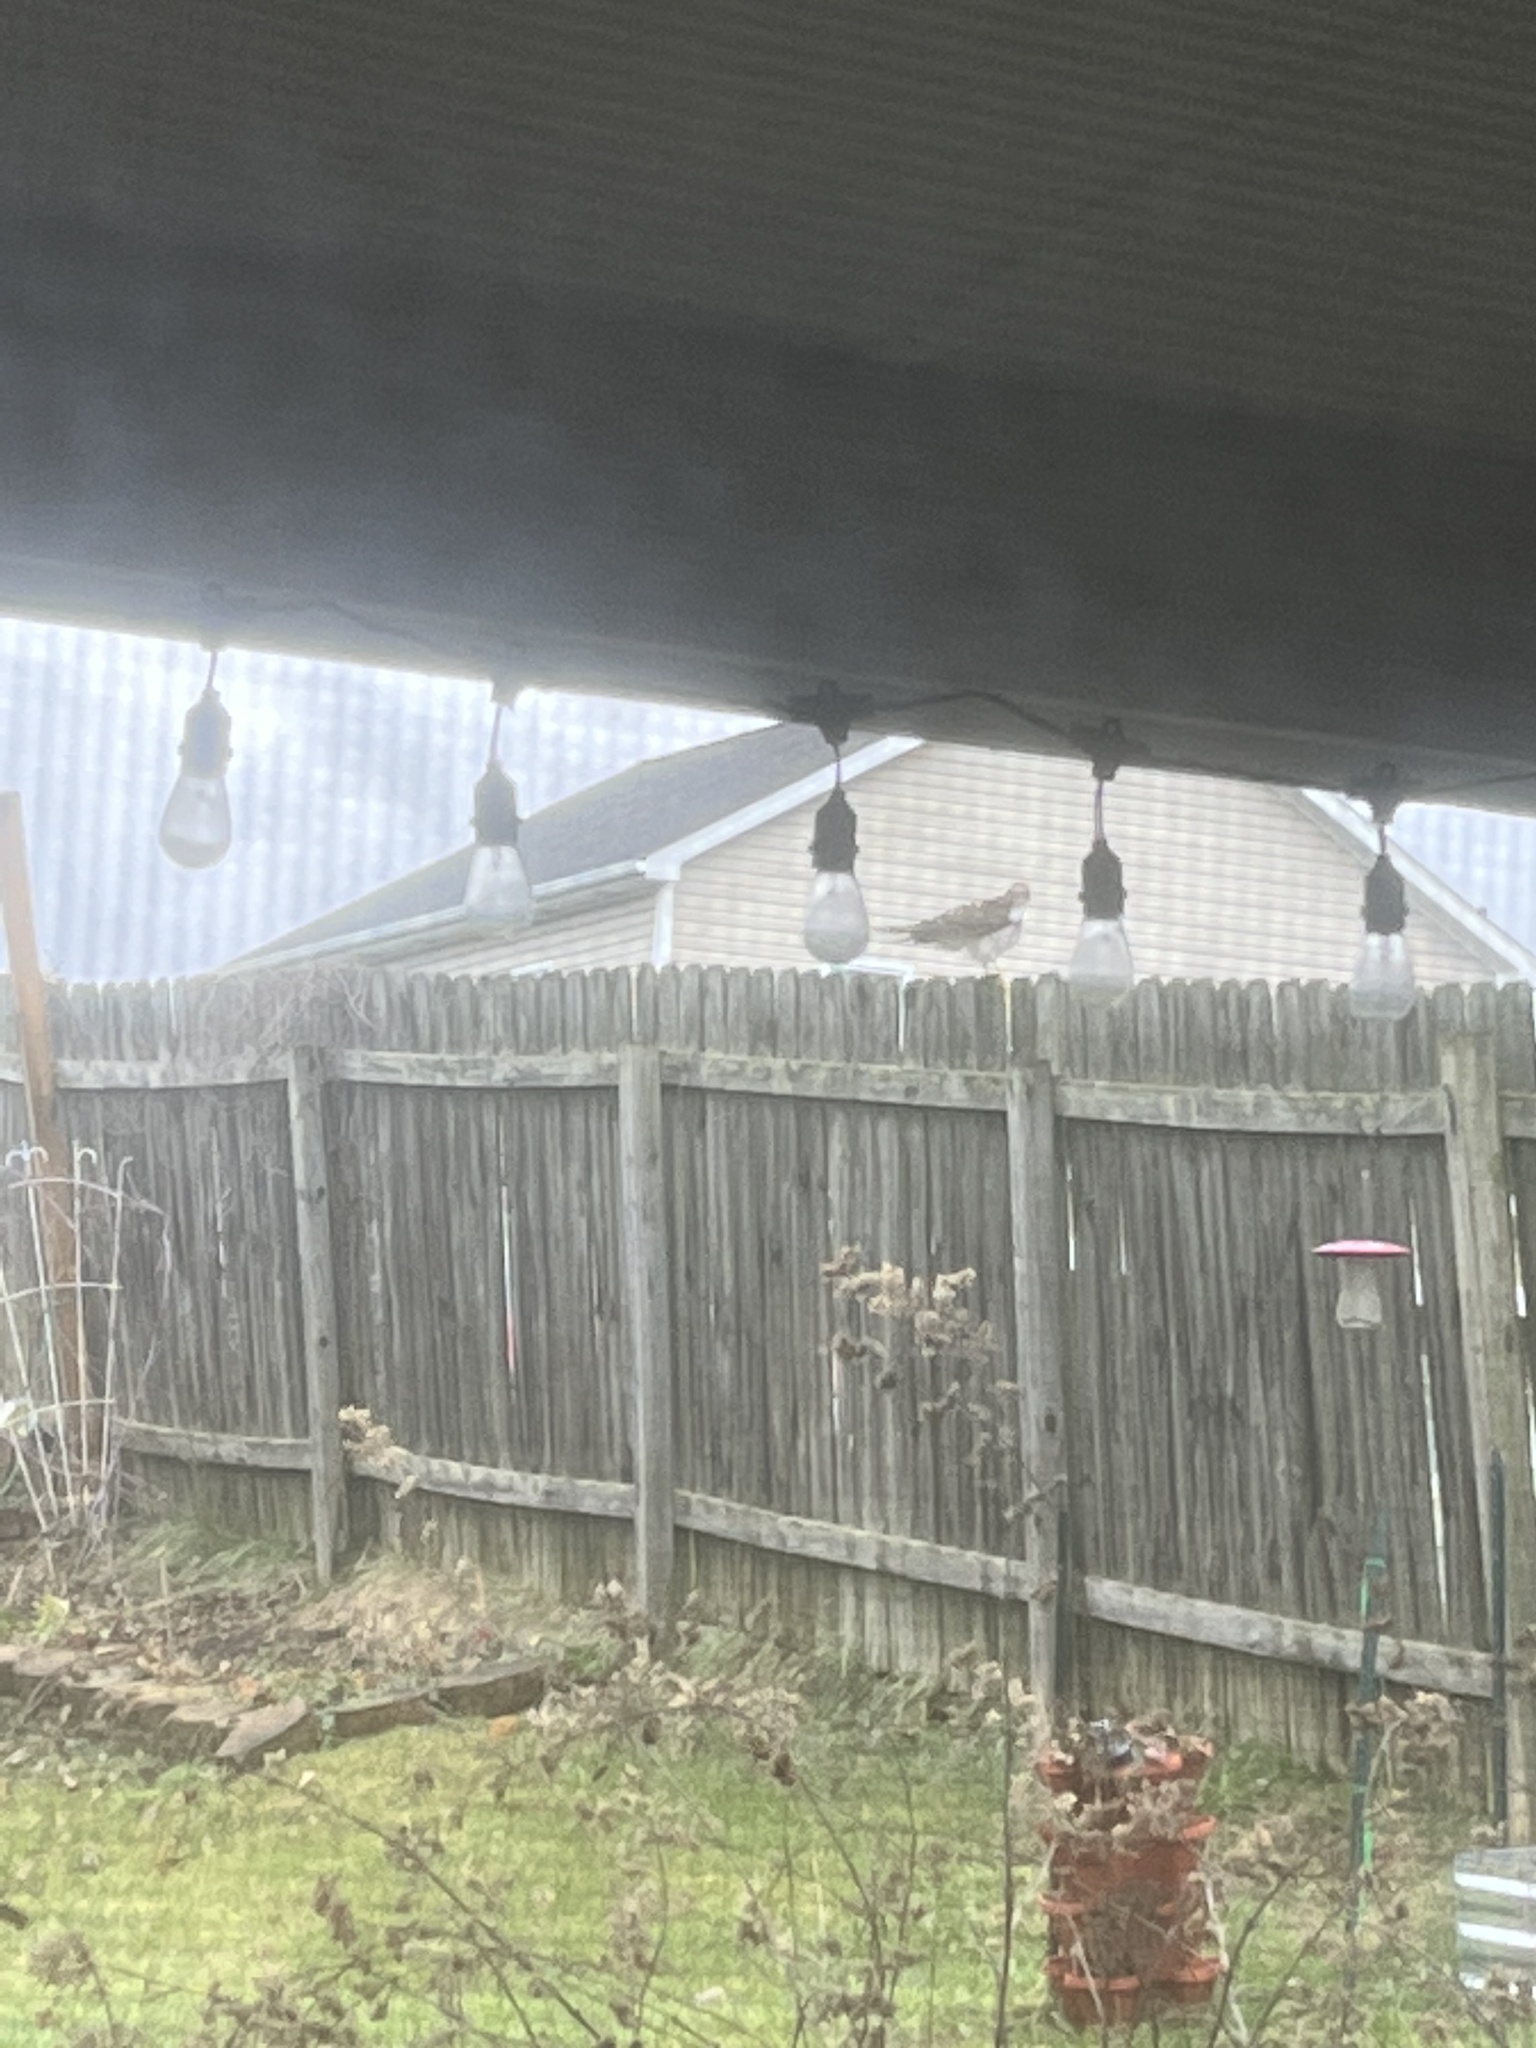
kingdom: Animalia
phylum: Chordata
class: Aves
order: Accipitriformes
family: Accipitridae
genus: Accipiter
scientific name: Accipiter cooperii
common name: Cooper's hawk
